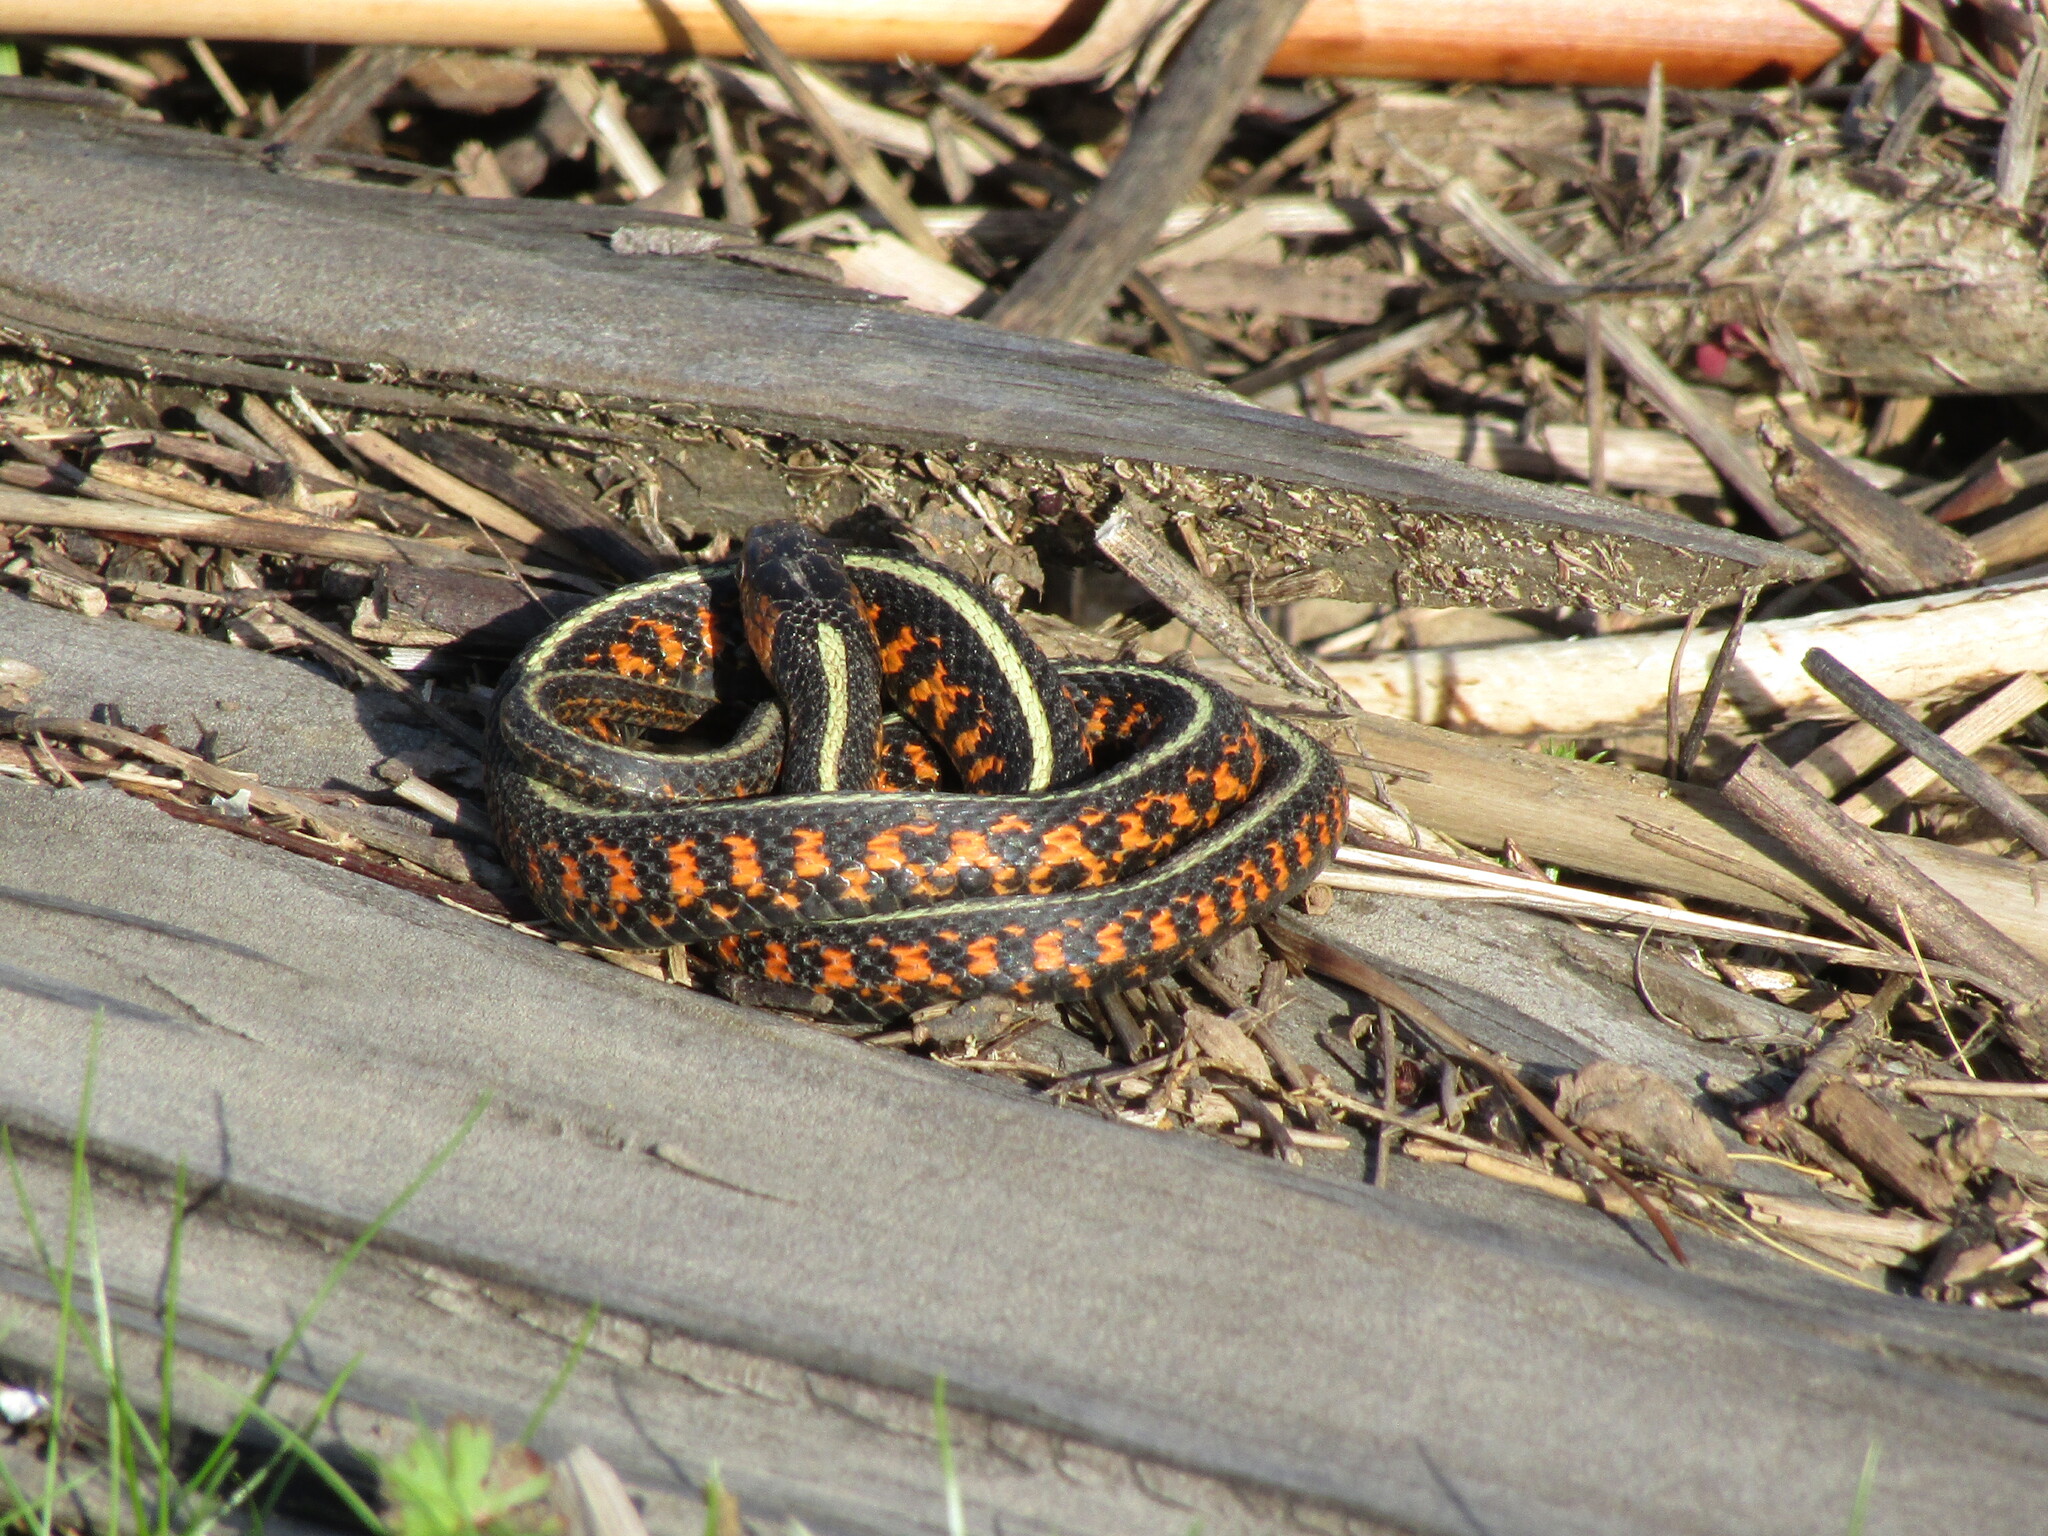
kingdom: Animalia
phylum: Chordata
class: Squamata
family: Colubridae
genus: Thamnophis
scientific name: Thamnophis sirtalis
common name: Common garter snake
